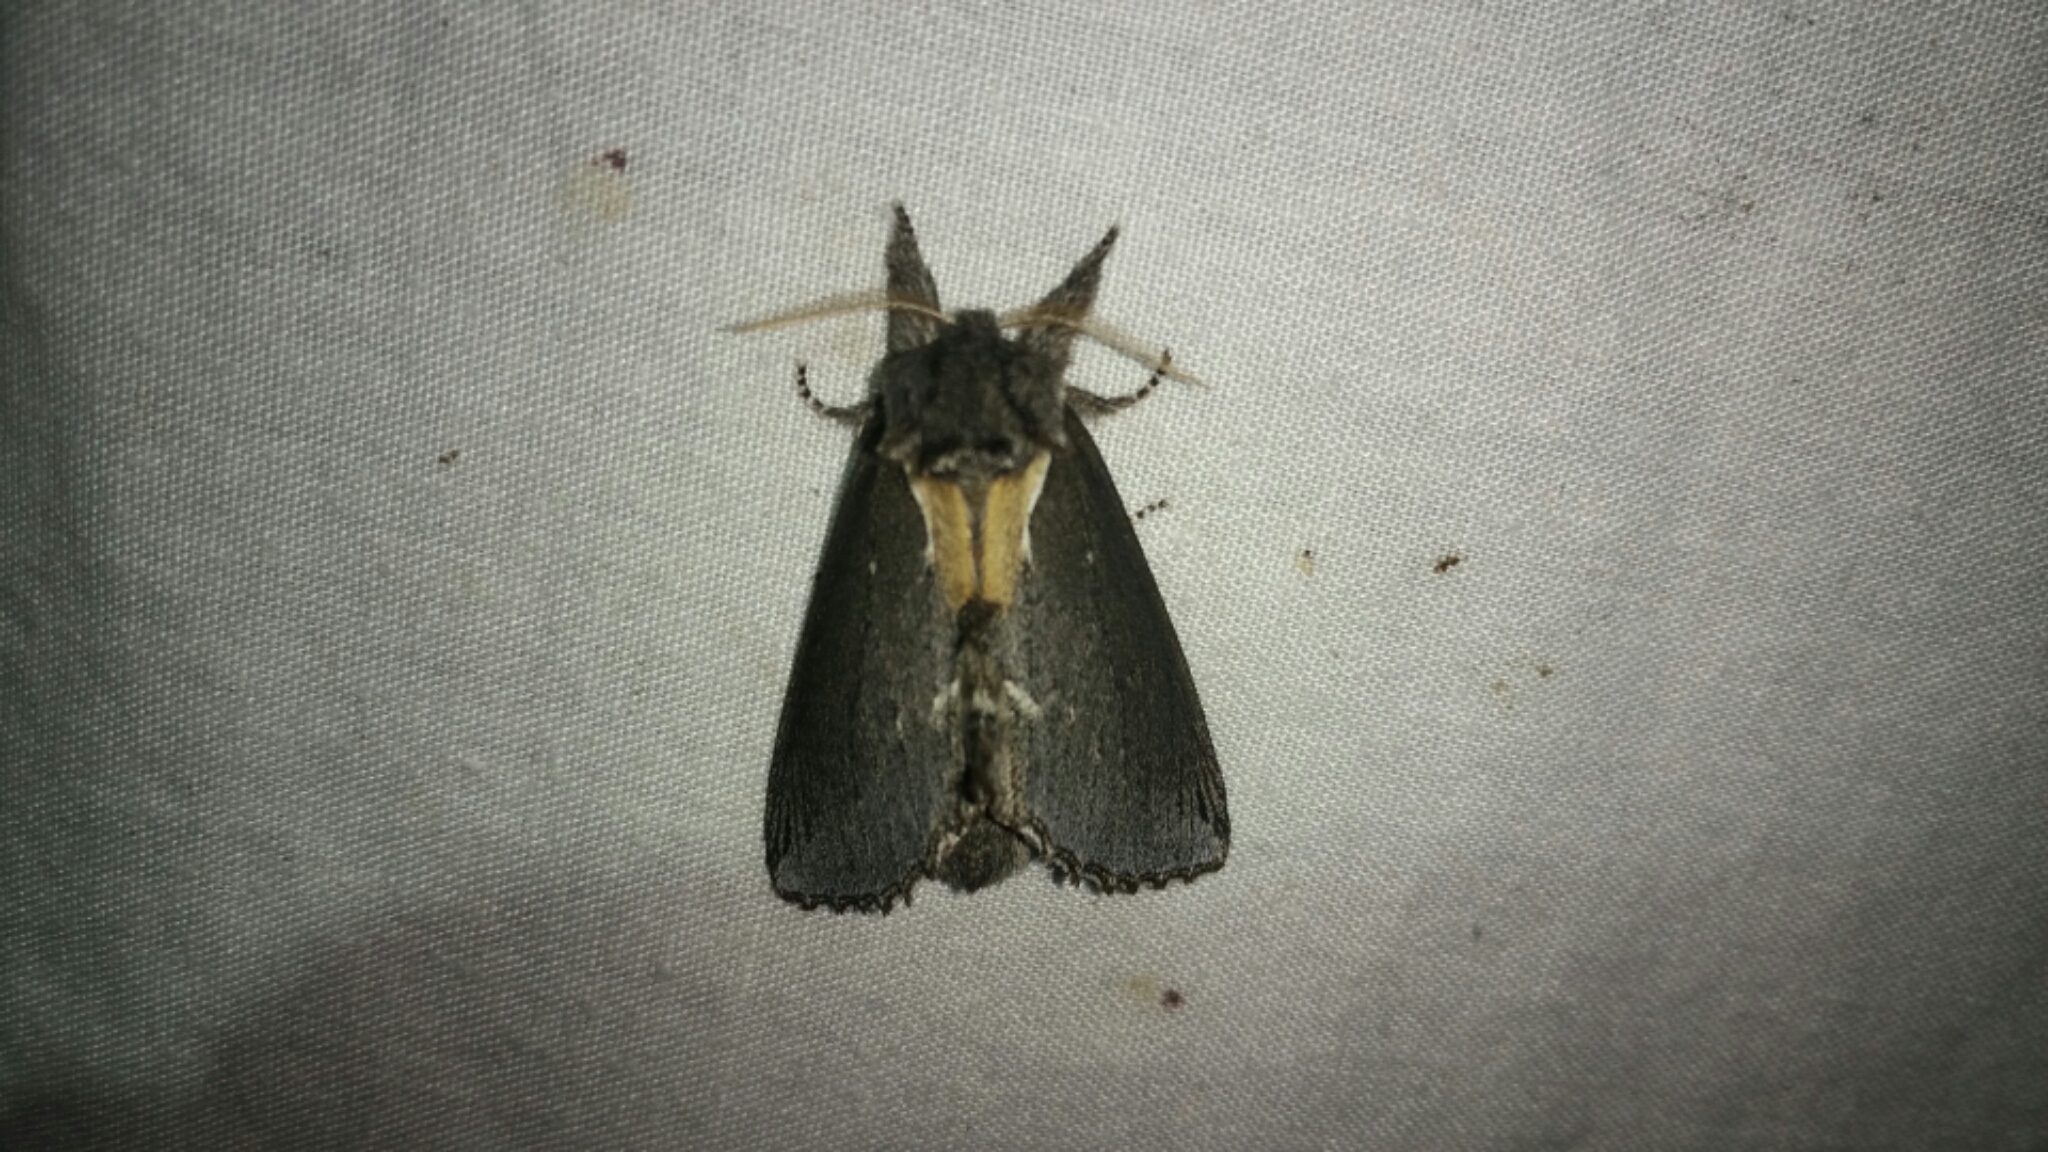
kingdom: Animalia
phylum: Arthropoda
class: Insecta
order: Lepidoptera
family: Notodontidae
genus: Pheosidea
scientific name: Pheosidea elegans
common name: Elegant prominent
